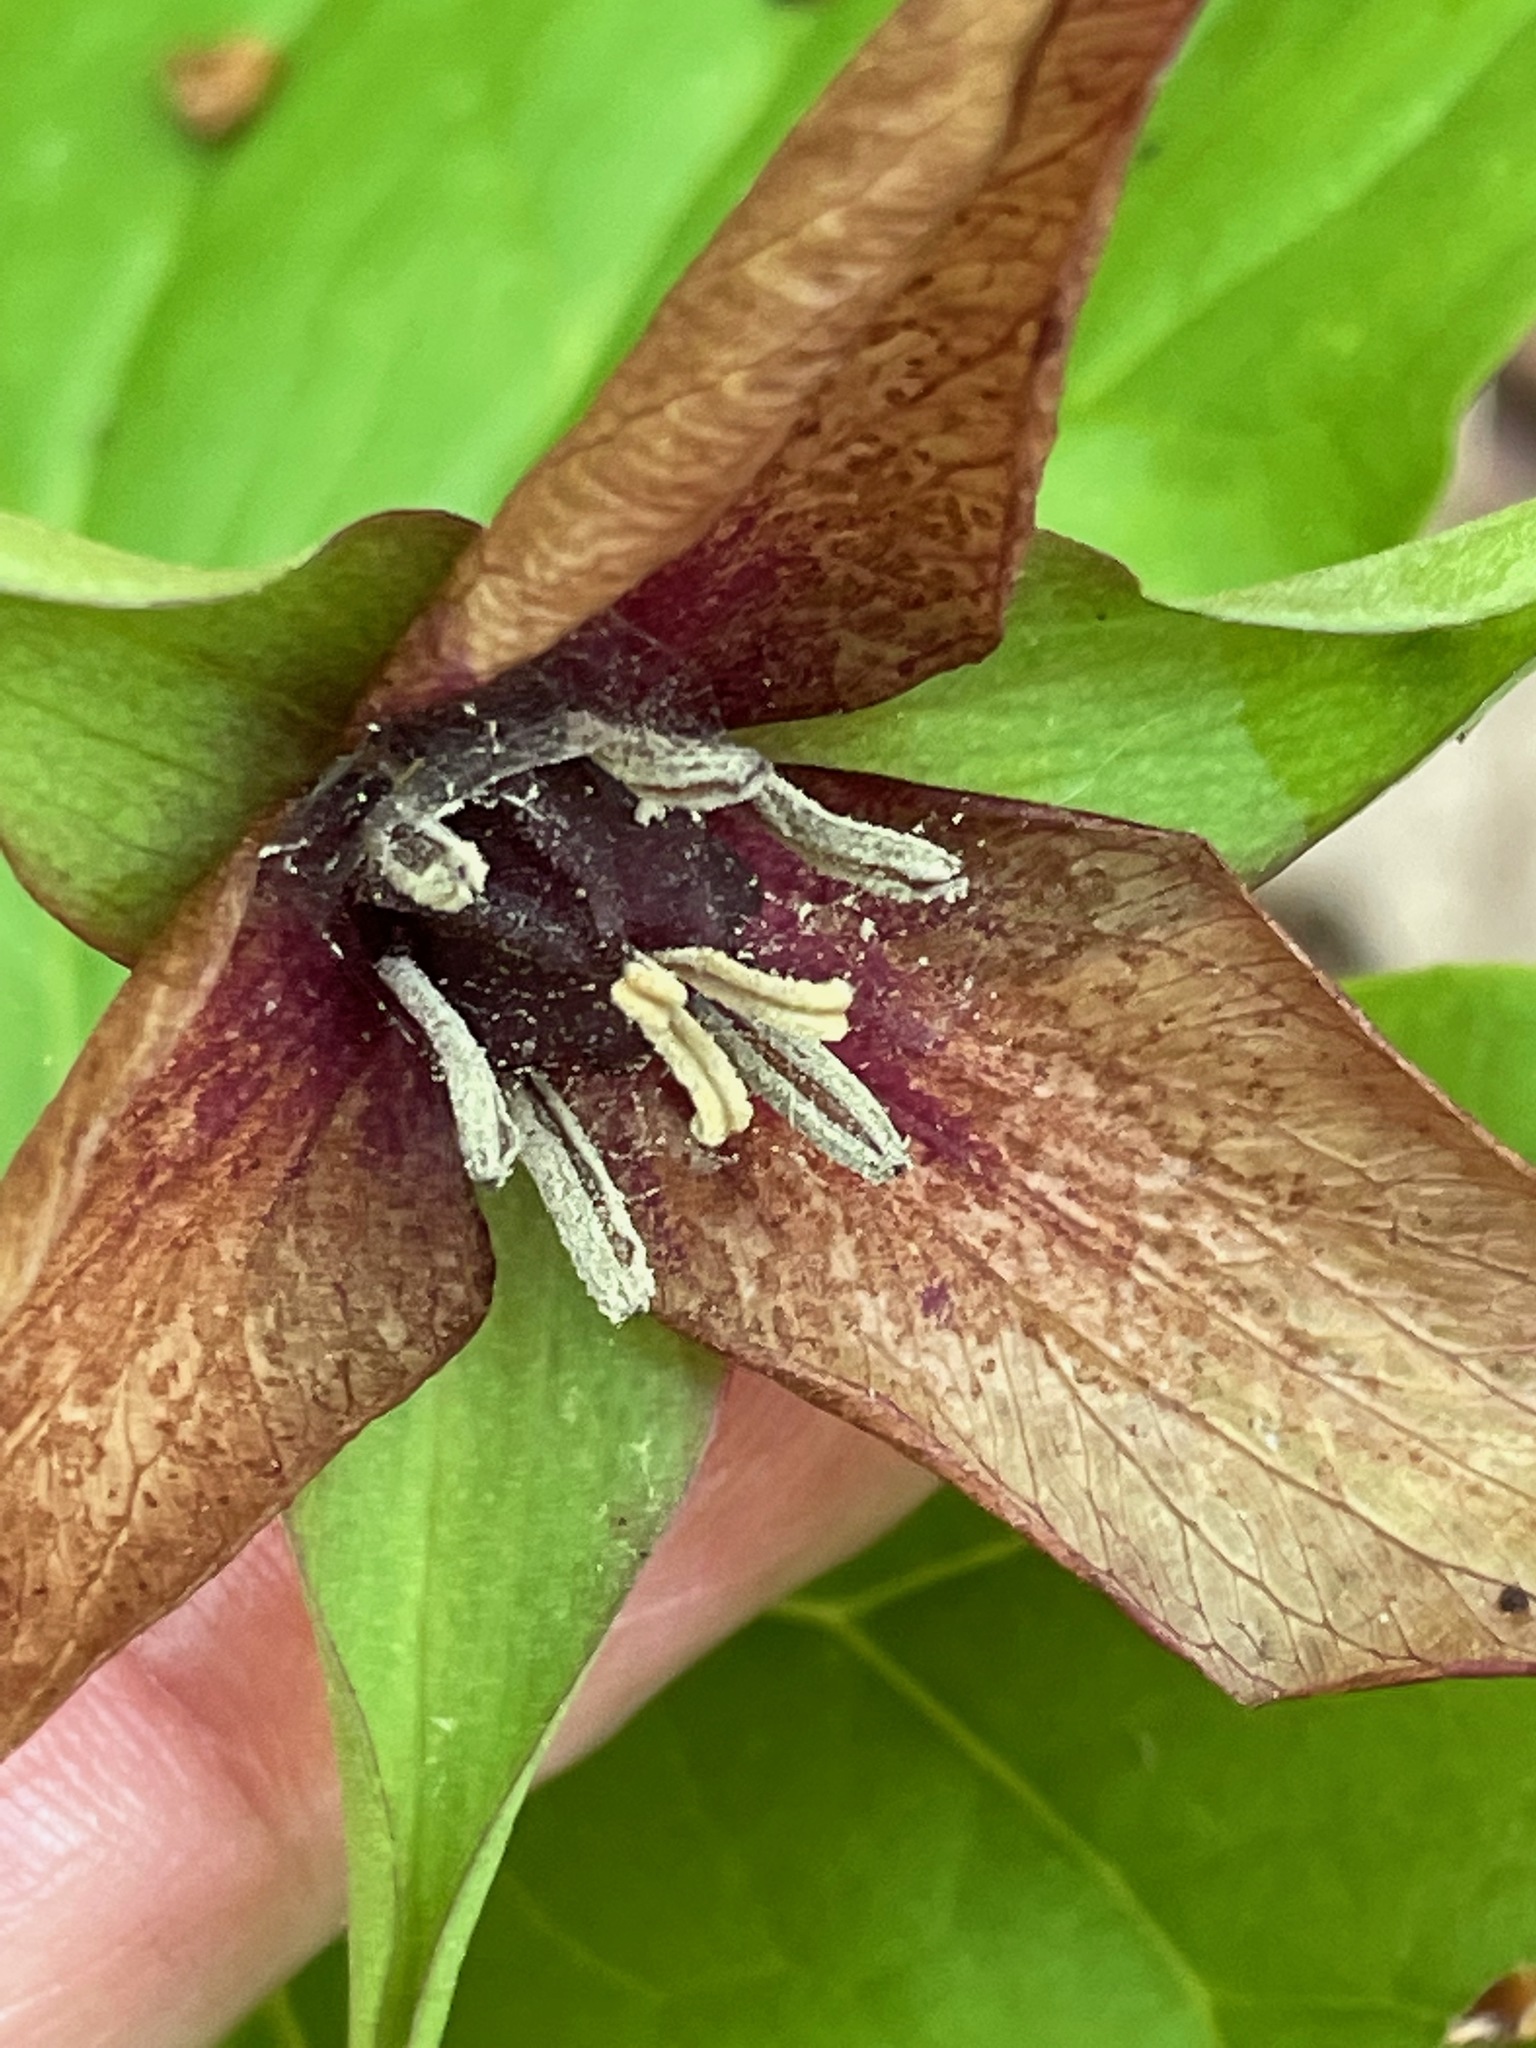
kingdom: Plantae
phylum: Tracheophyta
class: Liliopsida
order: Liliales
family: Melanthiaceae
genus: Trillium
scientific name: Trillium erectum
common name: Purple trillium
